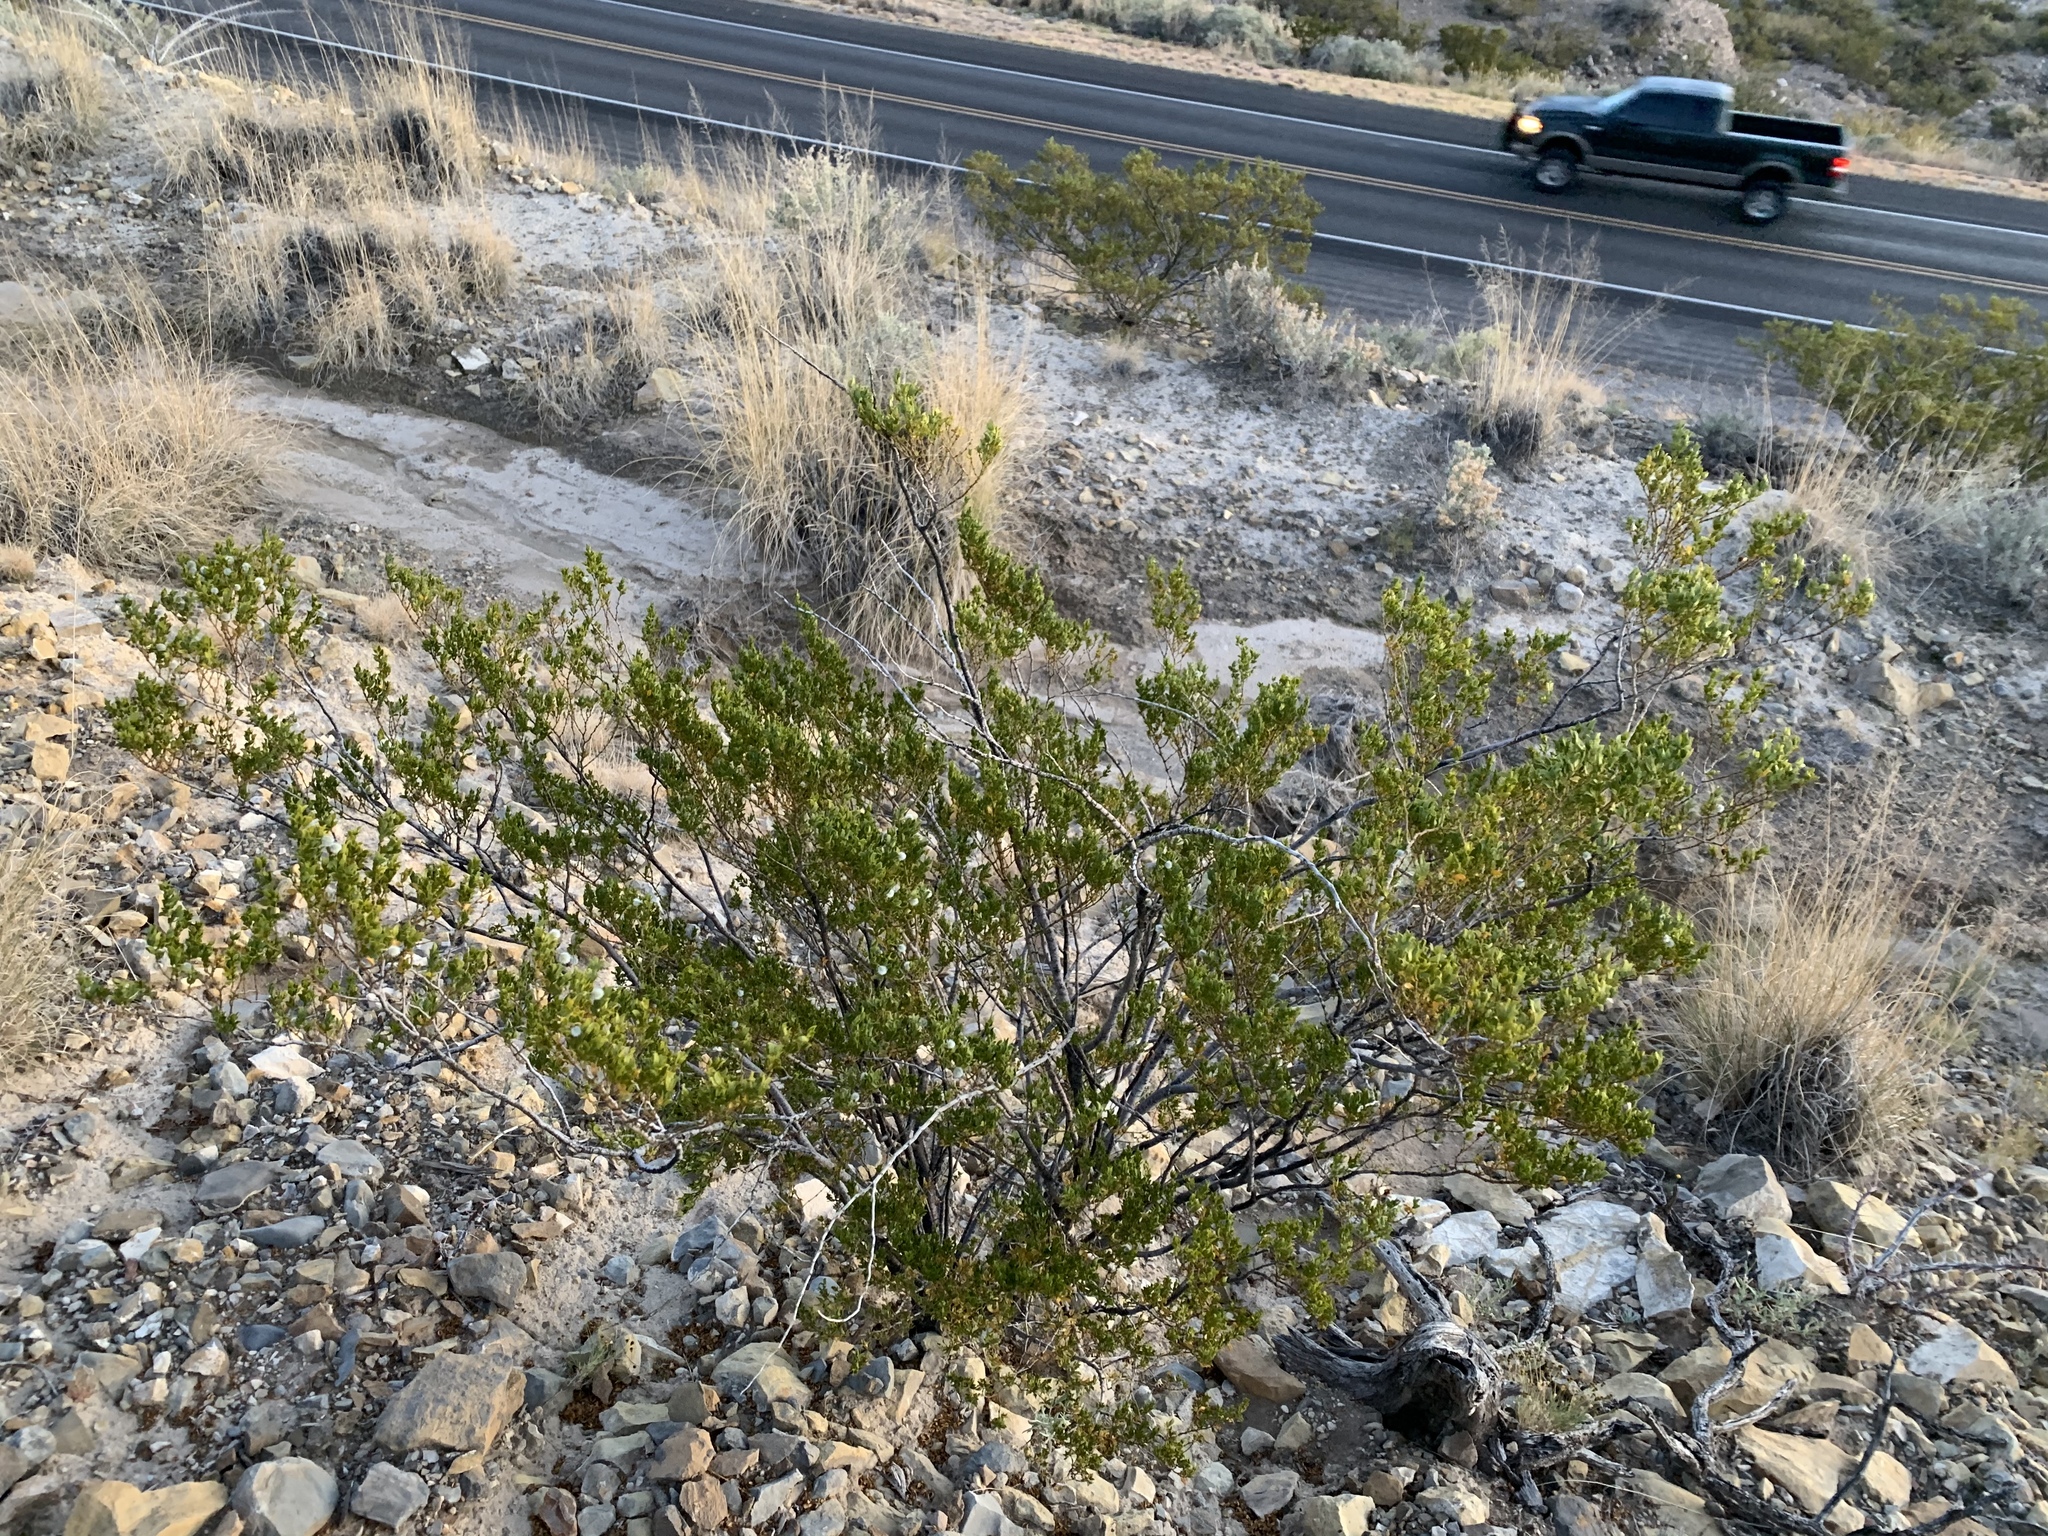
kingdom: Plantae
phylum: Tracheophyta
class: Magnoliopsida
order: Zygophyllales
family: Zygophyllaceae
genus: Larrea
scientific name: Larrea tridentata
